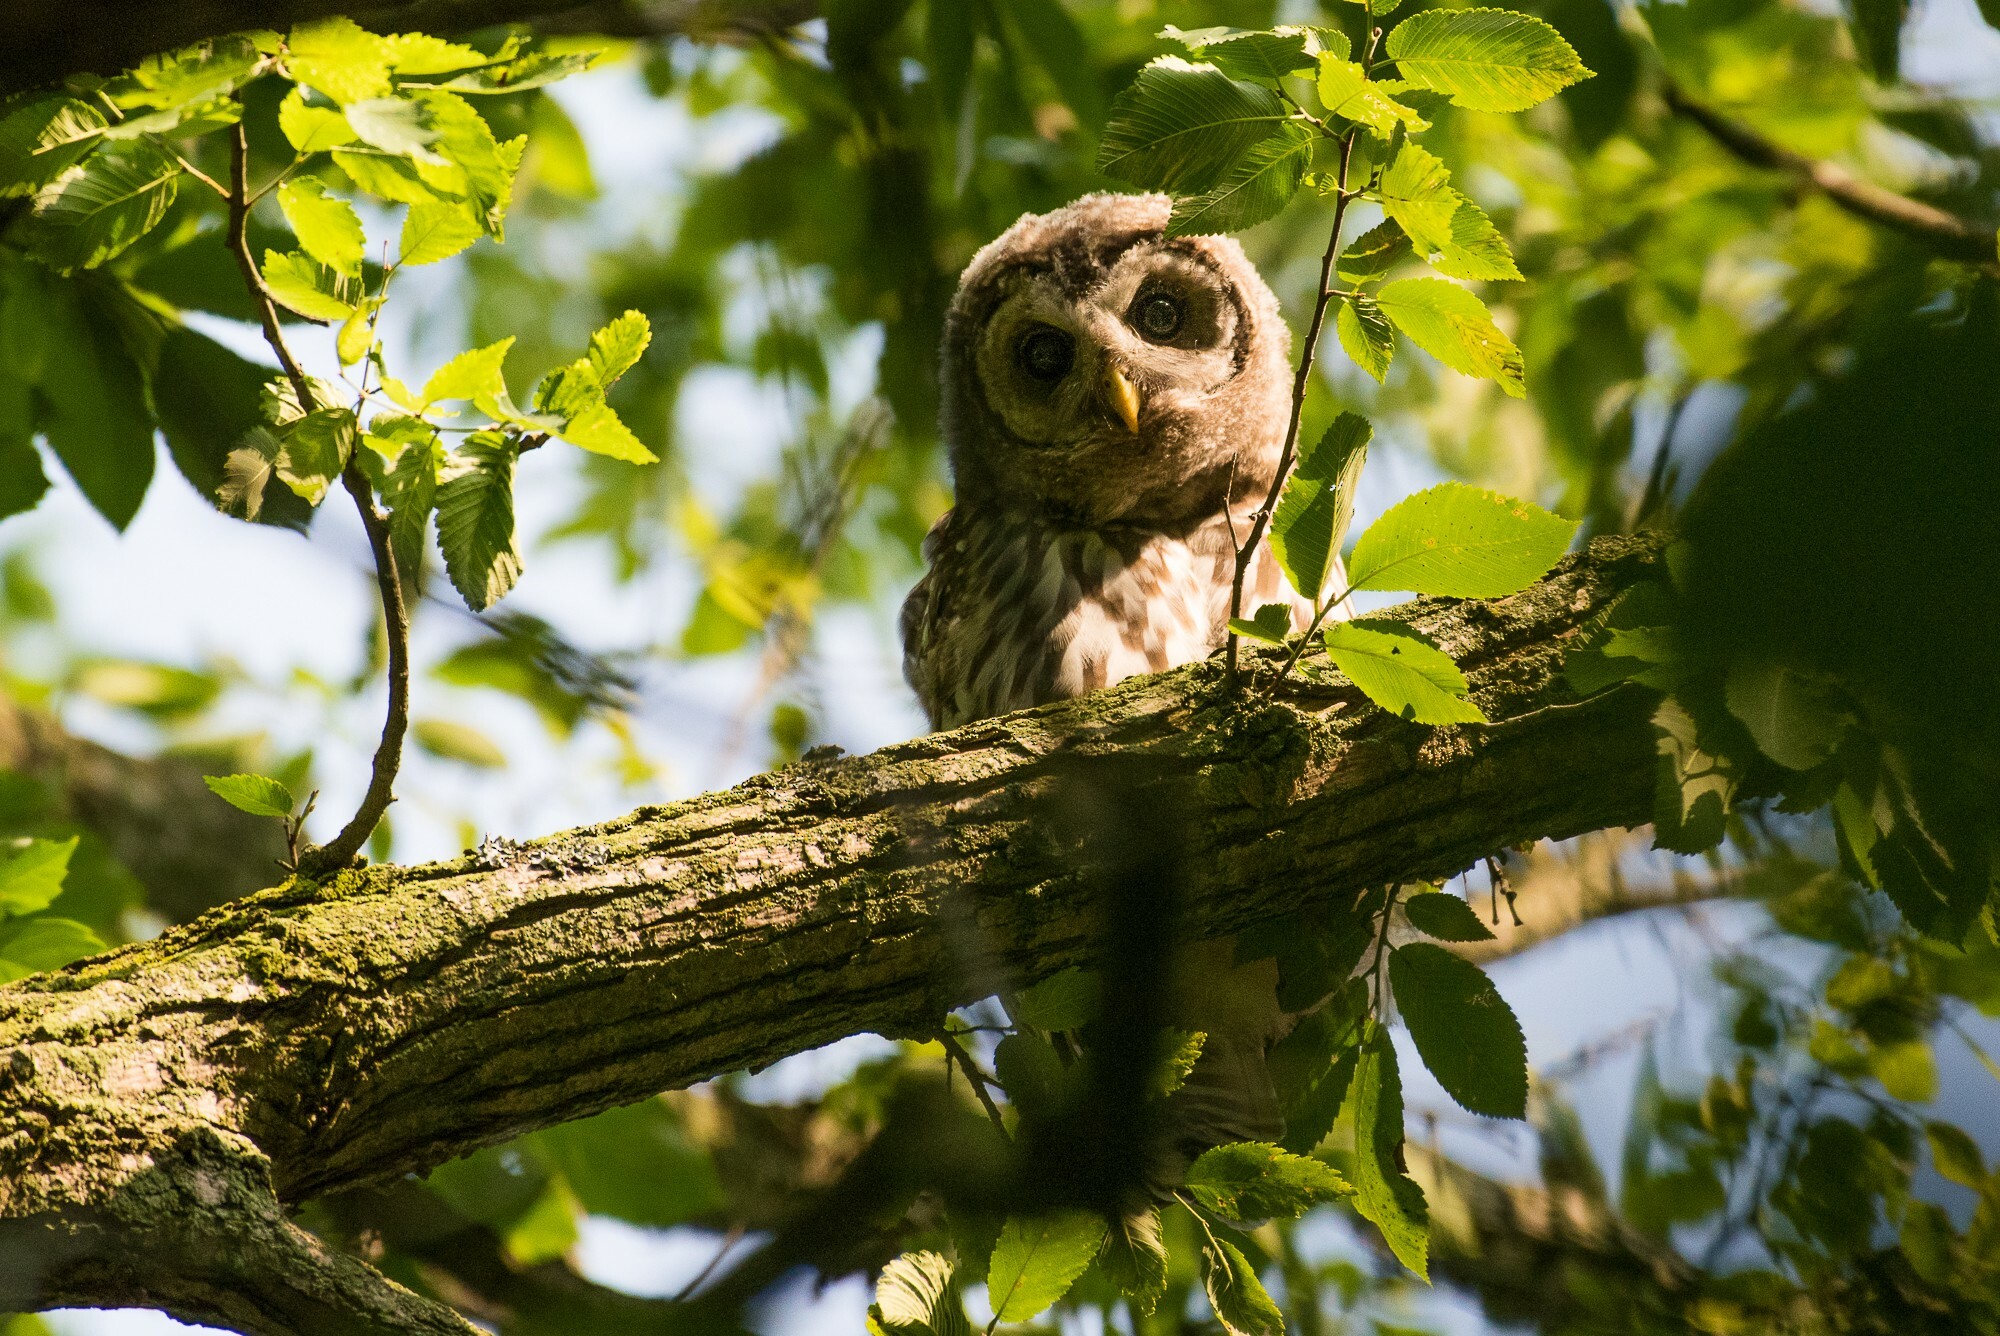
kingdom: Animalia
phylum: Chordata
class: Aves
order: Strigiformes
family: Strigidae
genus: Strix
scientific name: Strix varia
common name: Barred owl
